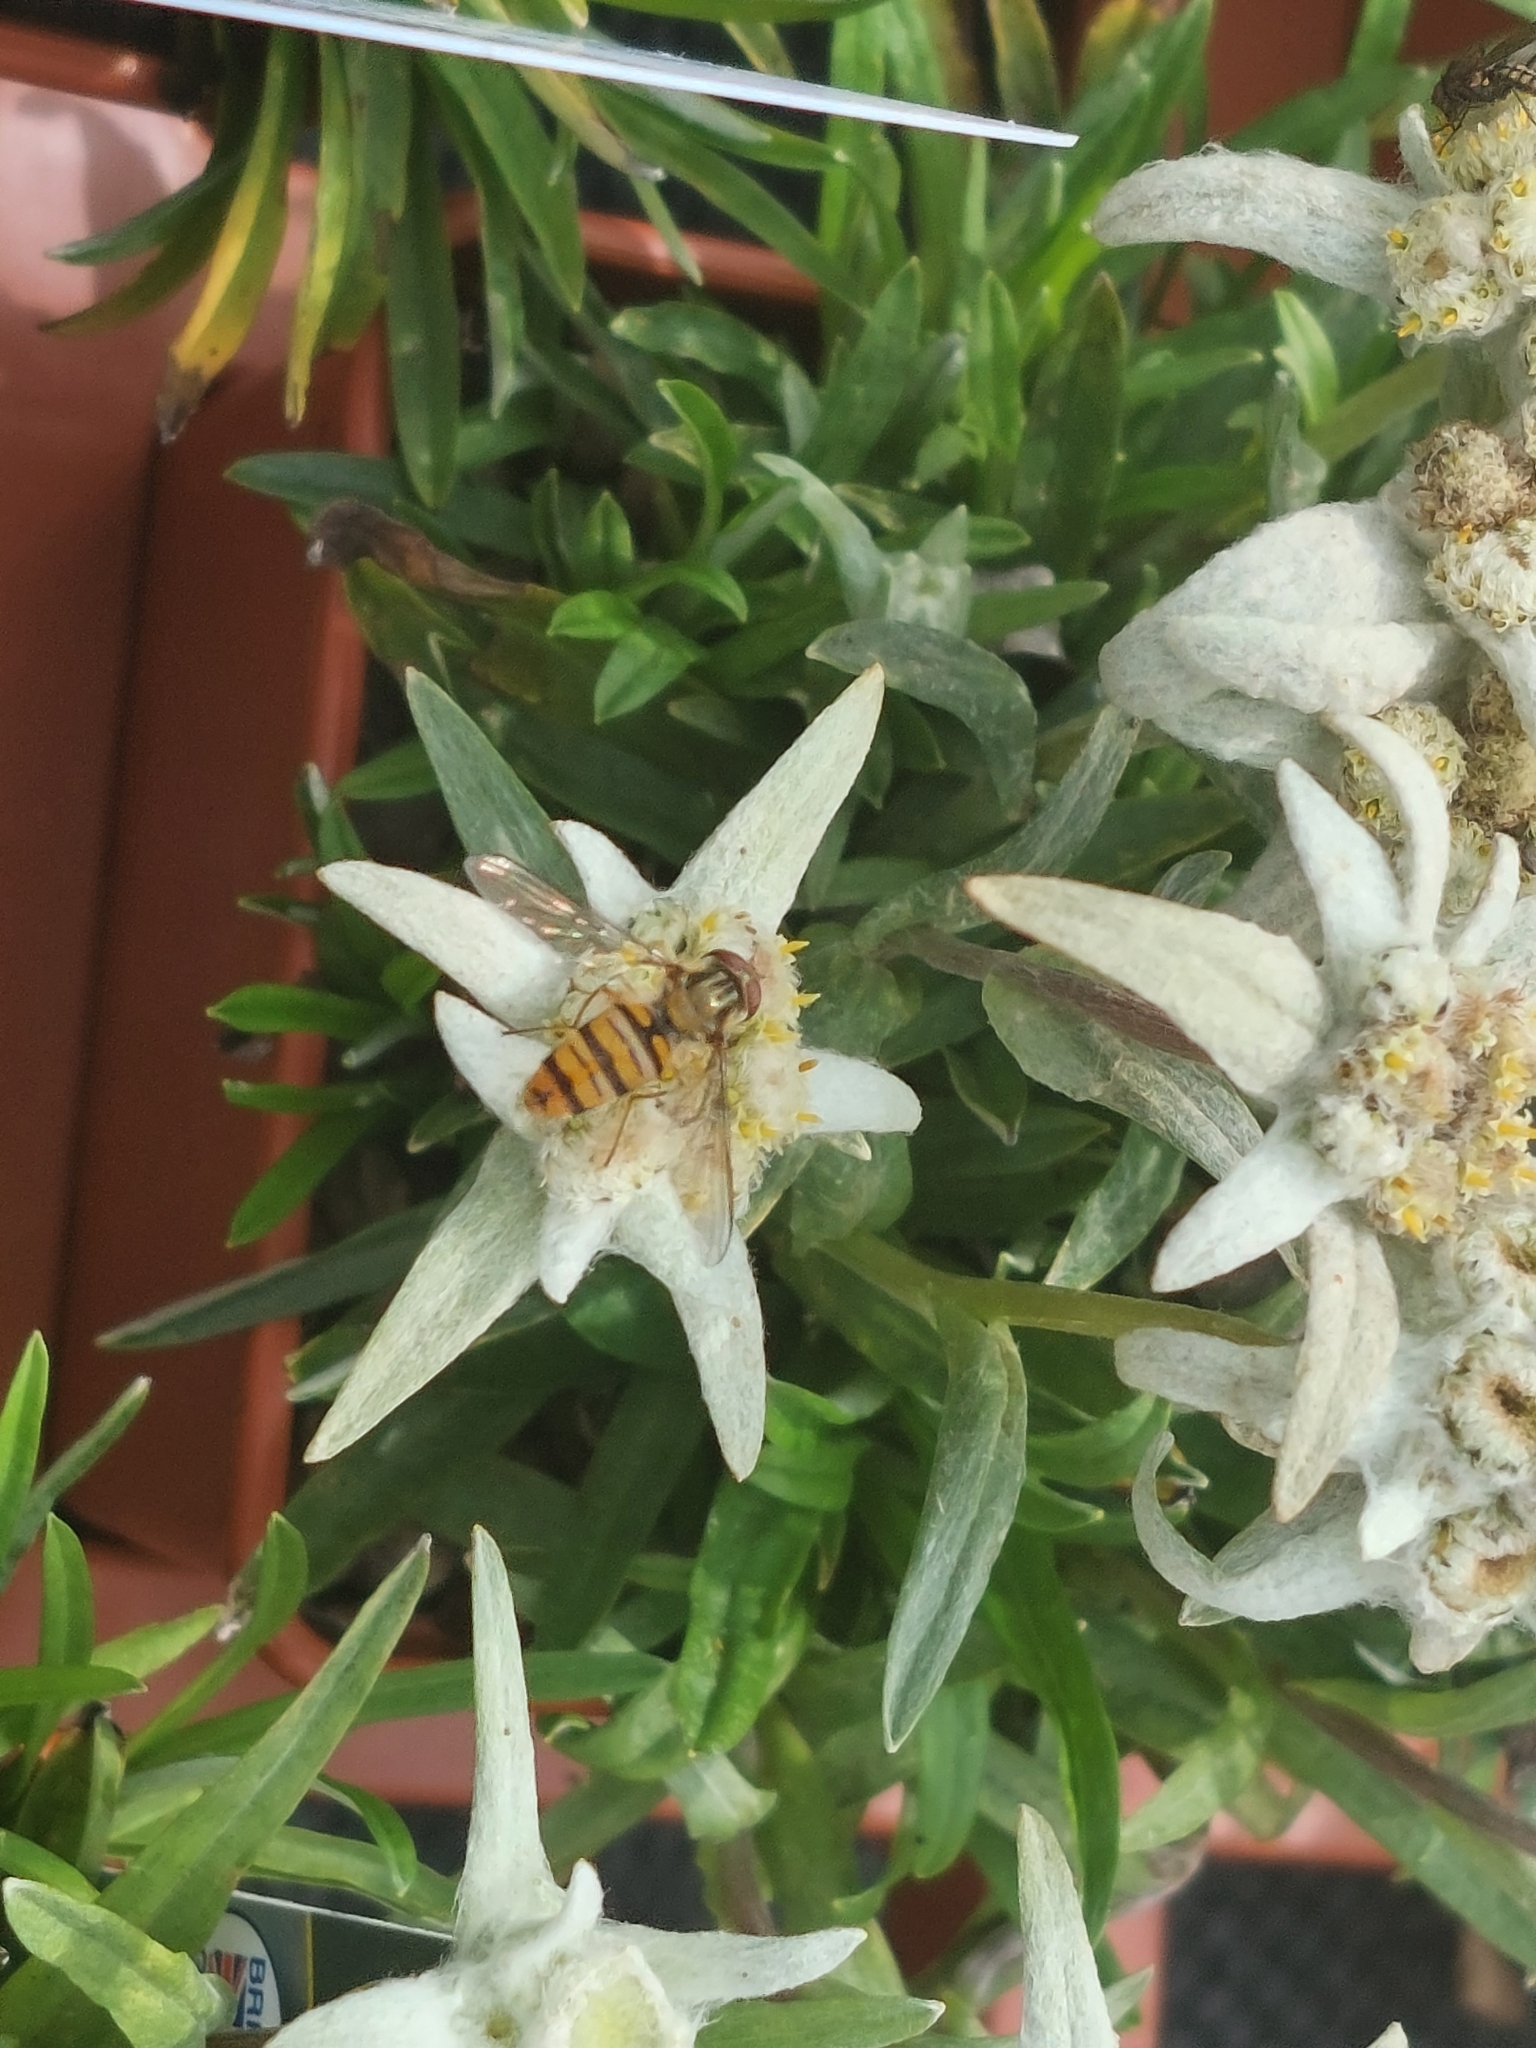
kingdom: Animalia
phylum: Arthropoda
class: Insecta
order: Diptera
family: Syrphidae
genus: Episyrphus
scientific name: Episyrphus balteatus
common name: Marmalade hoverfly
